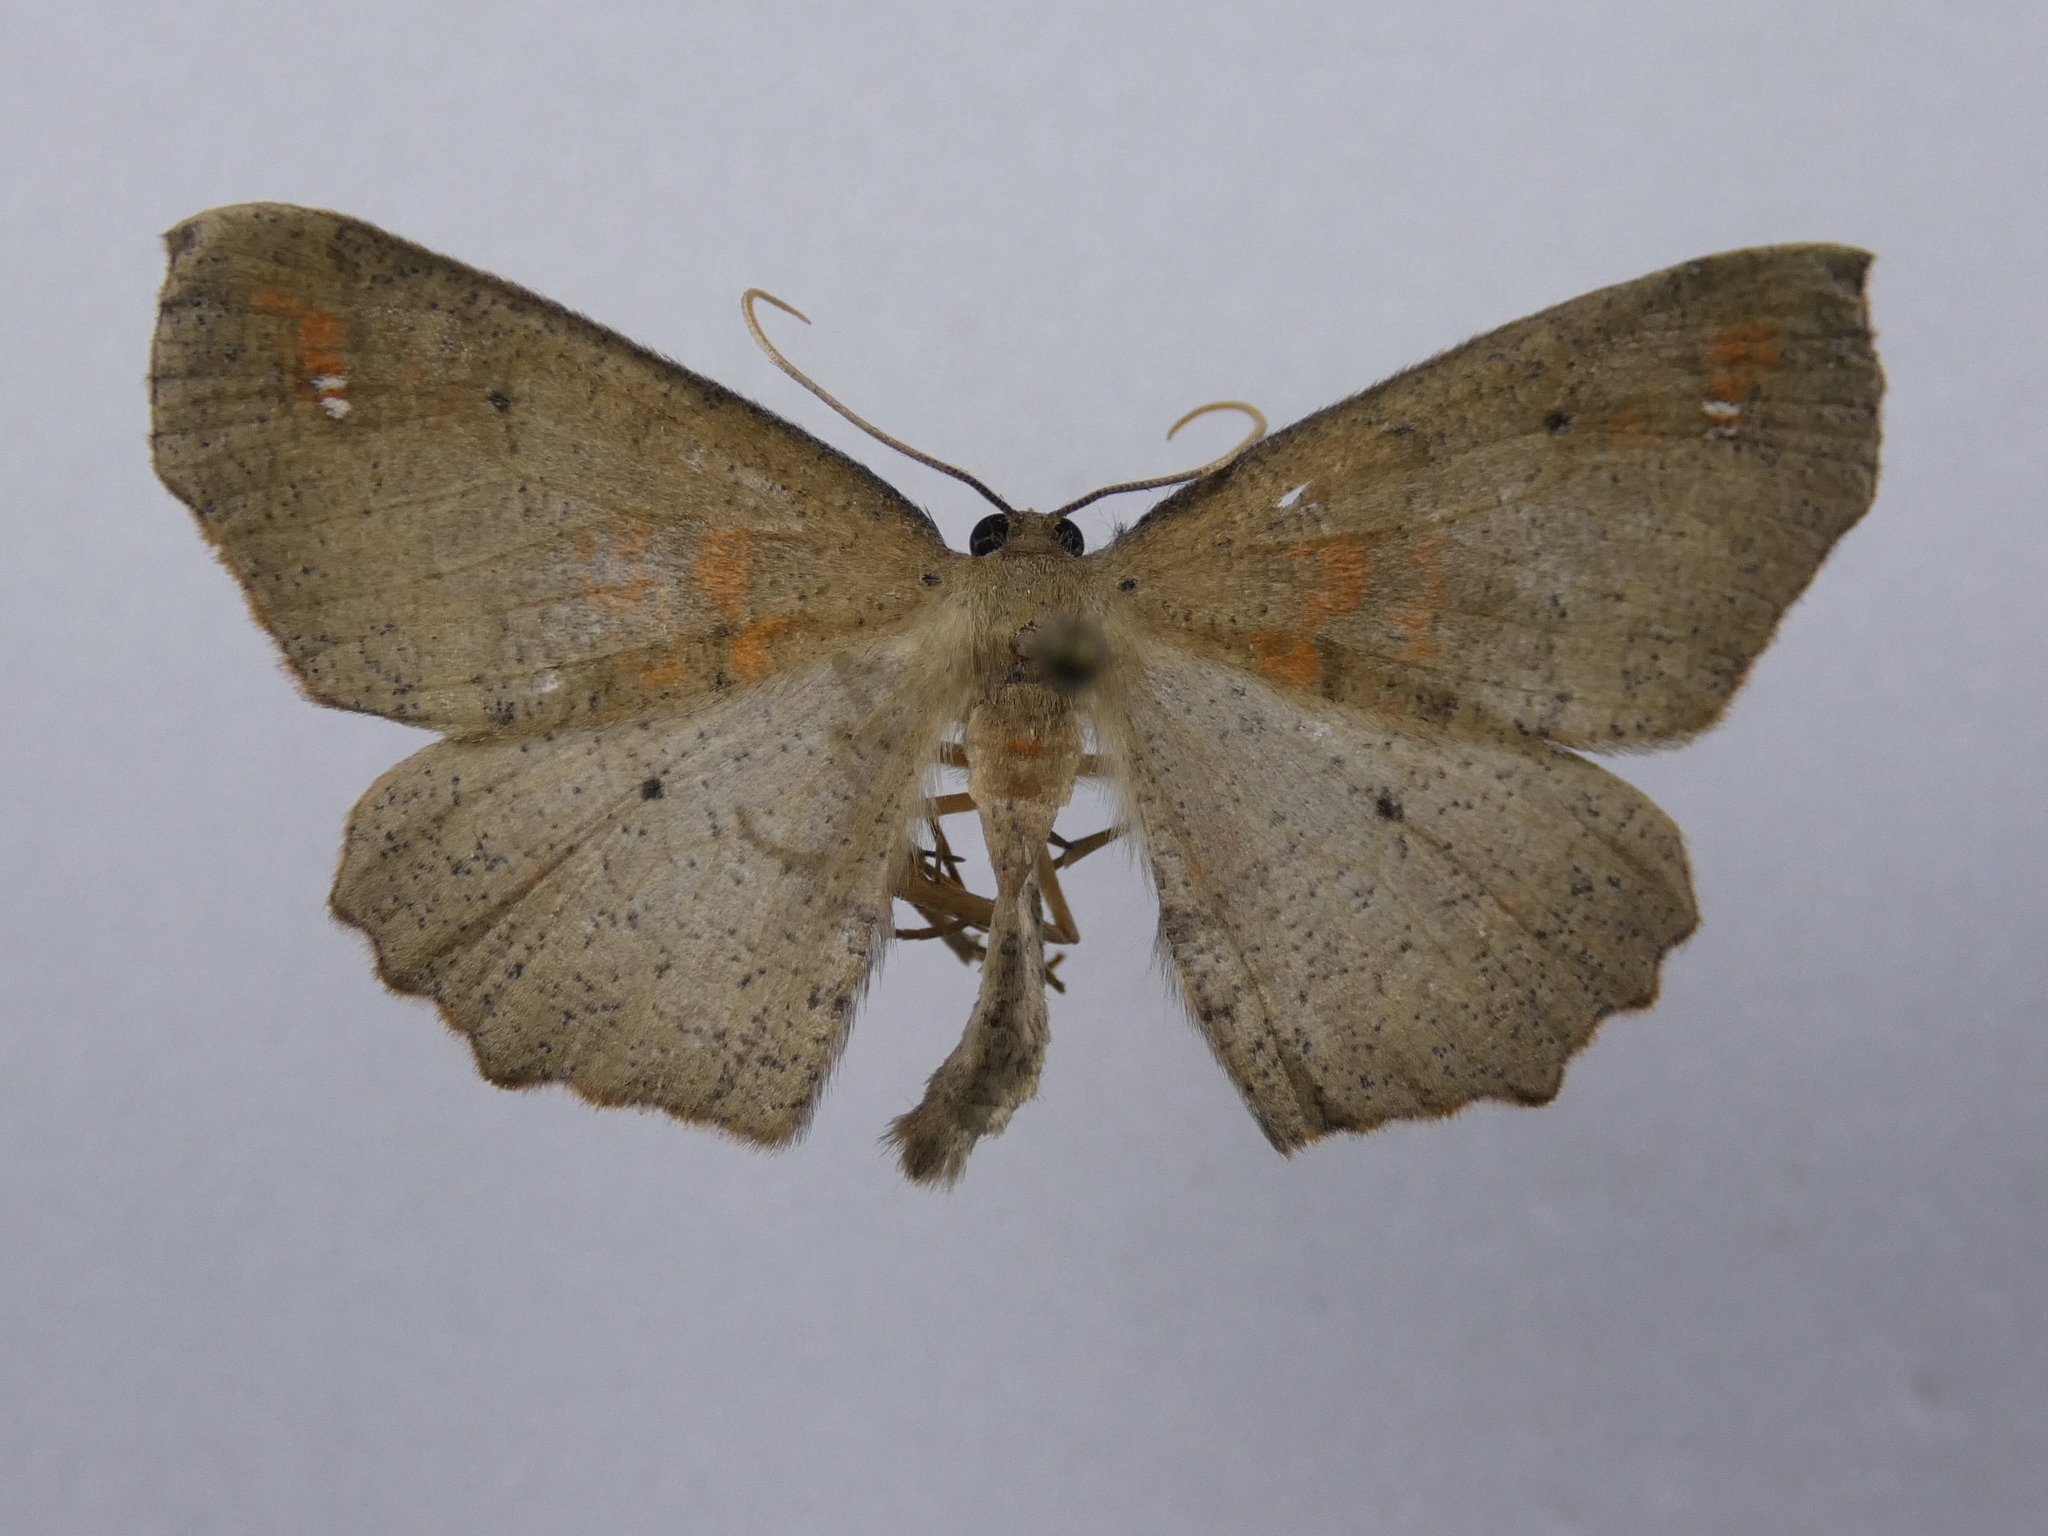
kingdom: Animalia
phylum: Arthropoda
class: Insecta
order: Lepidoptera
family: Geometridae
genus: Xyridacma
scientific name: Xyridacma ustaria
